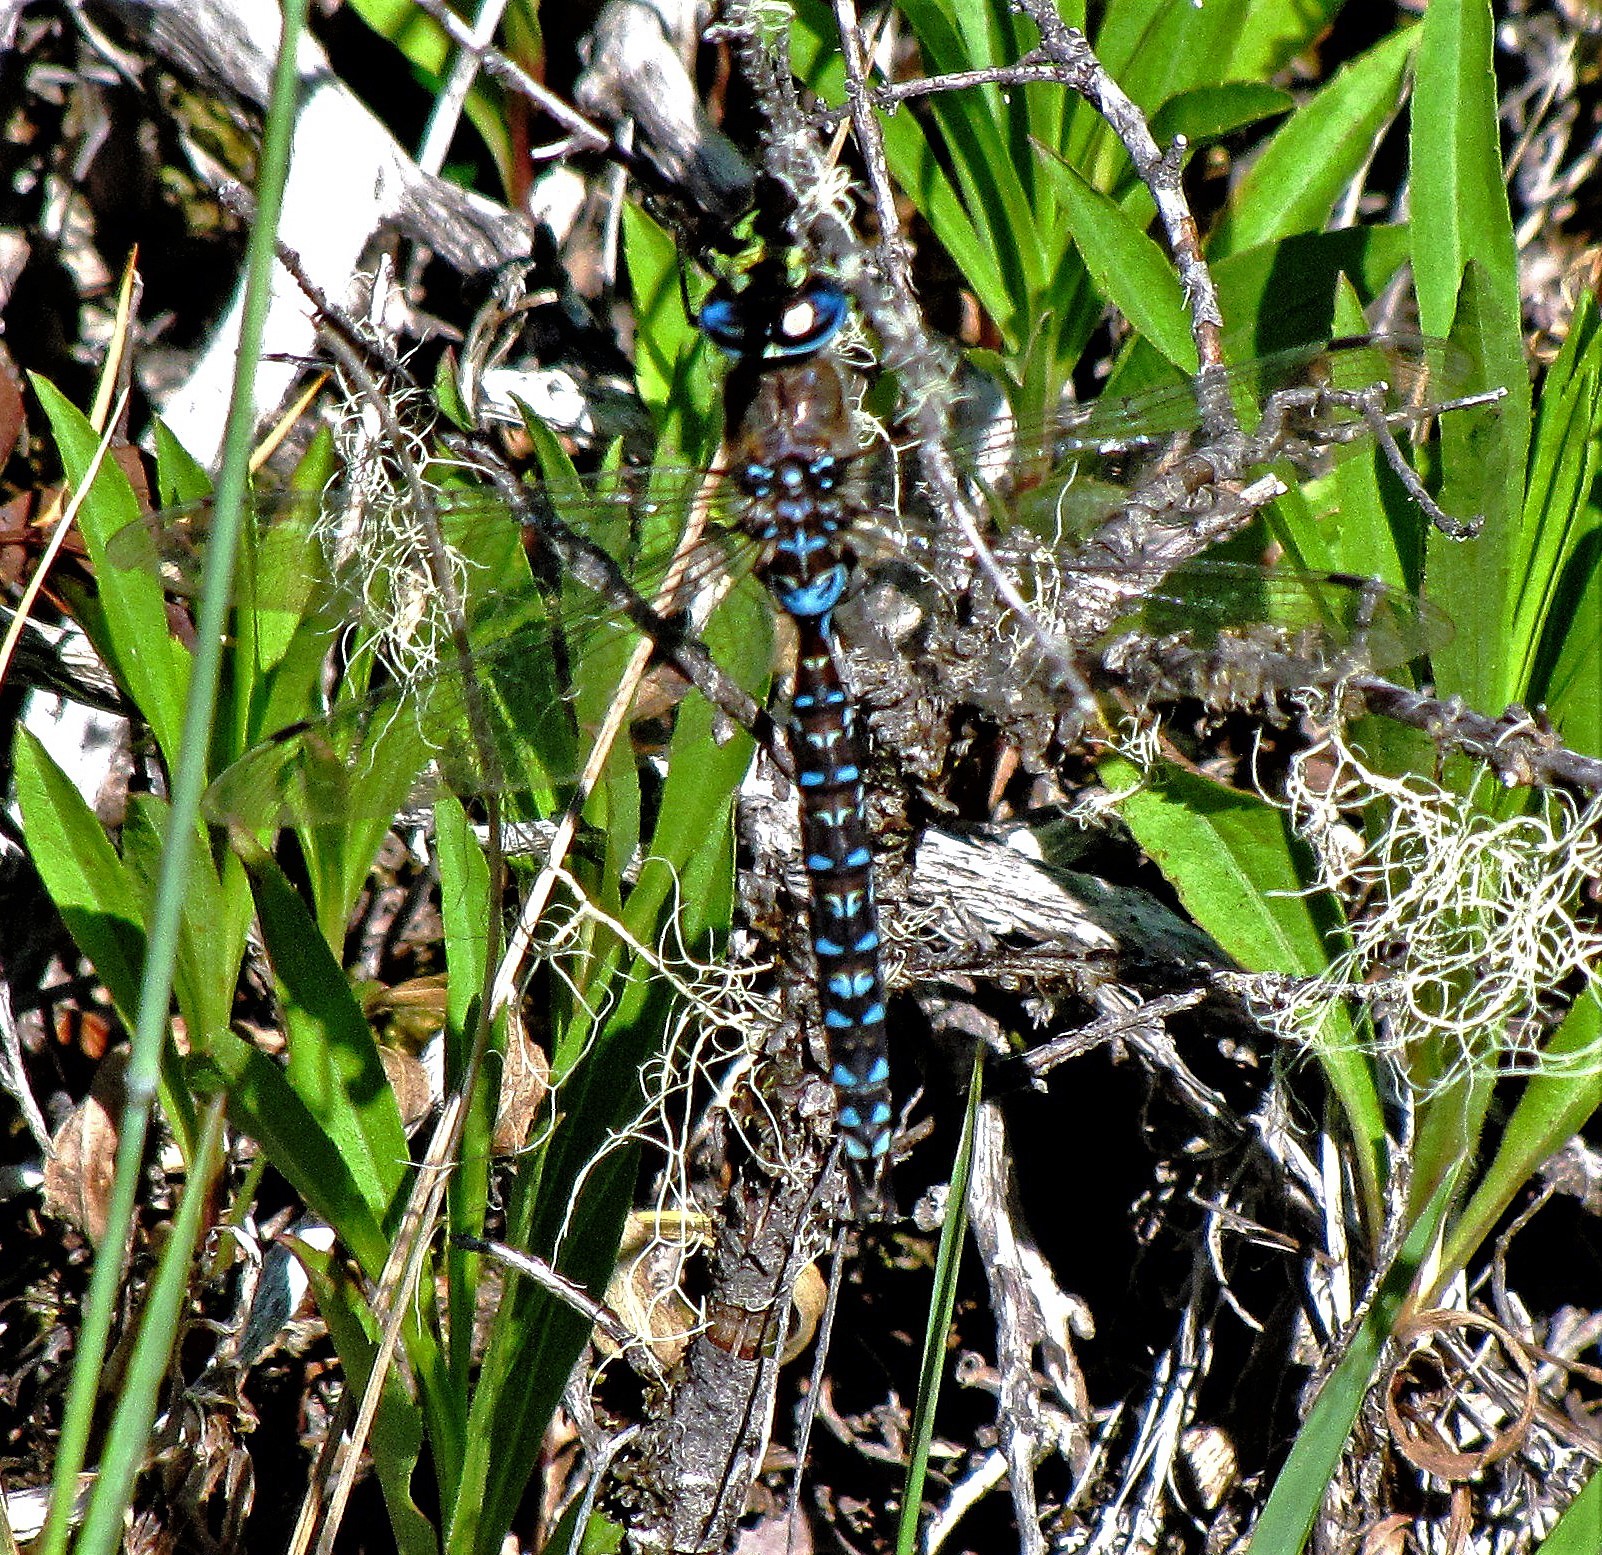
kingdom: Animalia
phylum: Arthropoda
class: Insecta
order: Odonata
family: Aeshnidae
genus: Rhionaeschna
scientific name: Rhionaeschna variegata
